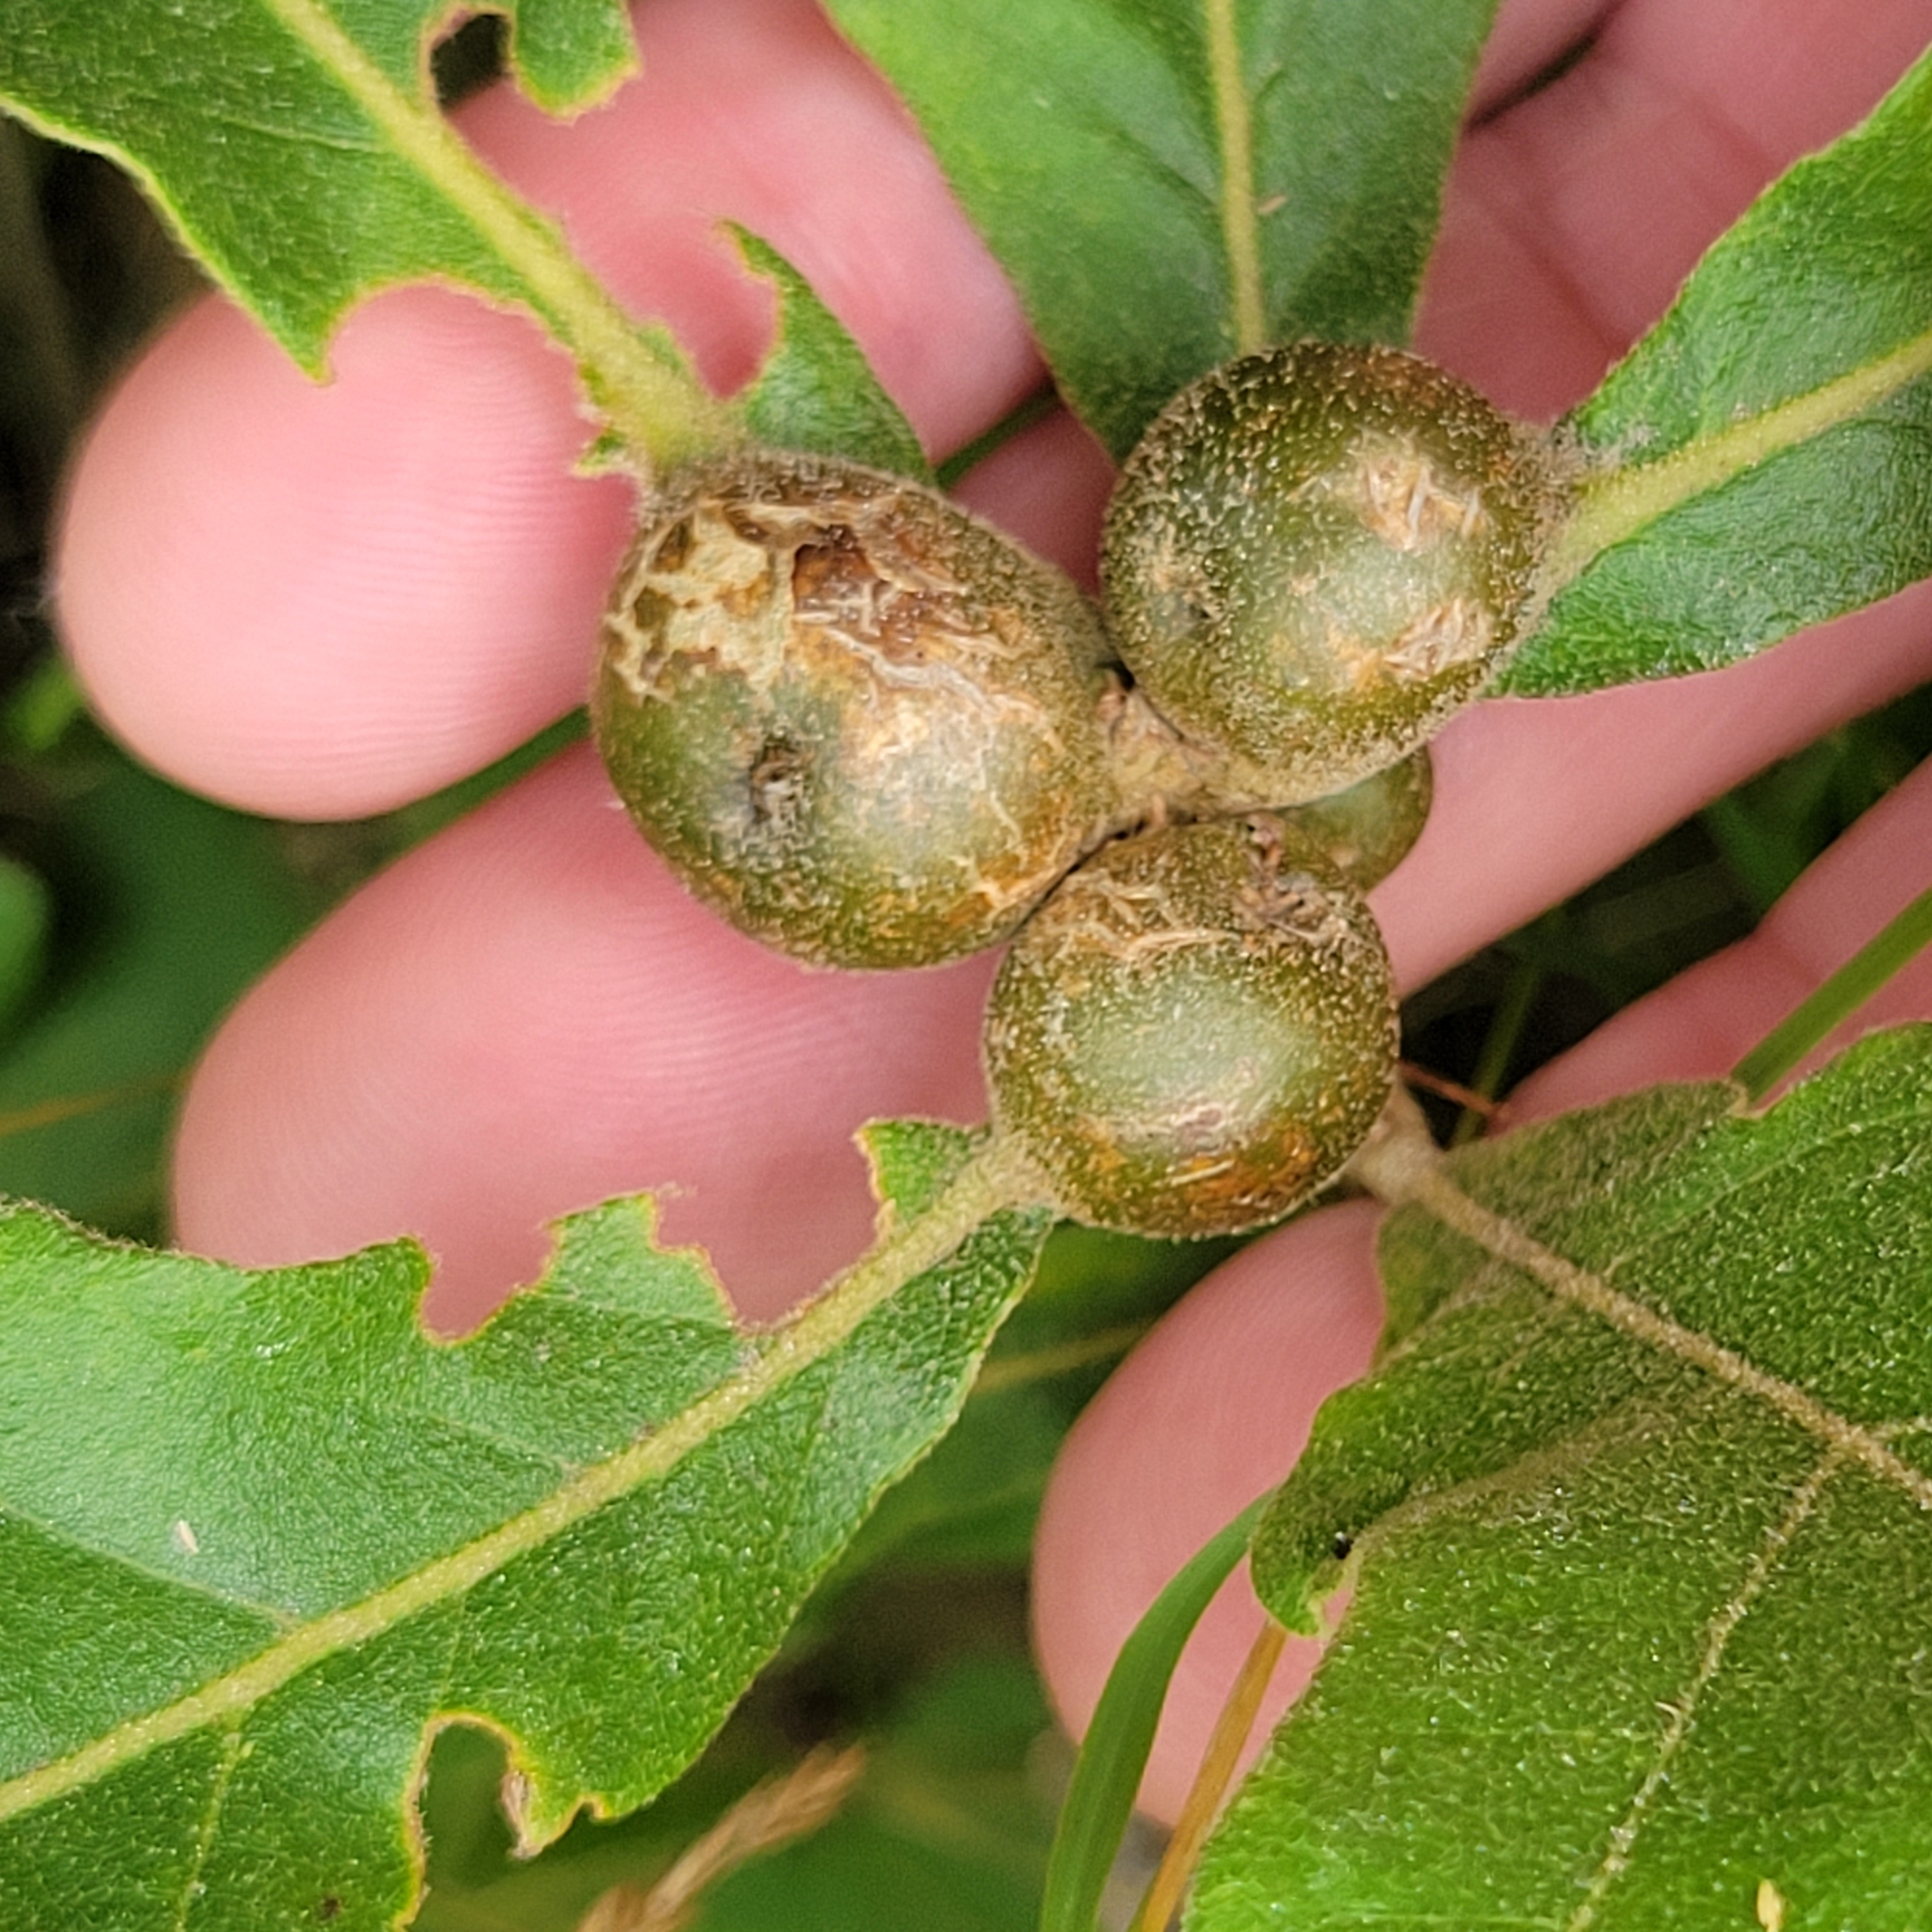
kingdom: Animalia
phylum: Arthropoda
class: Insecta
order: Hymenoptera
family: Cynipidae
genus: Andricus
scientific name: Andricus
